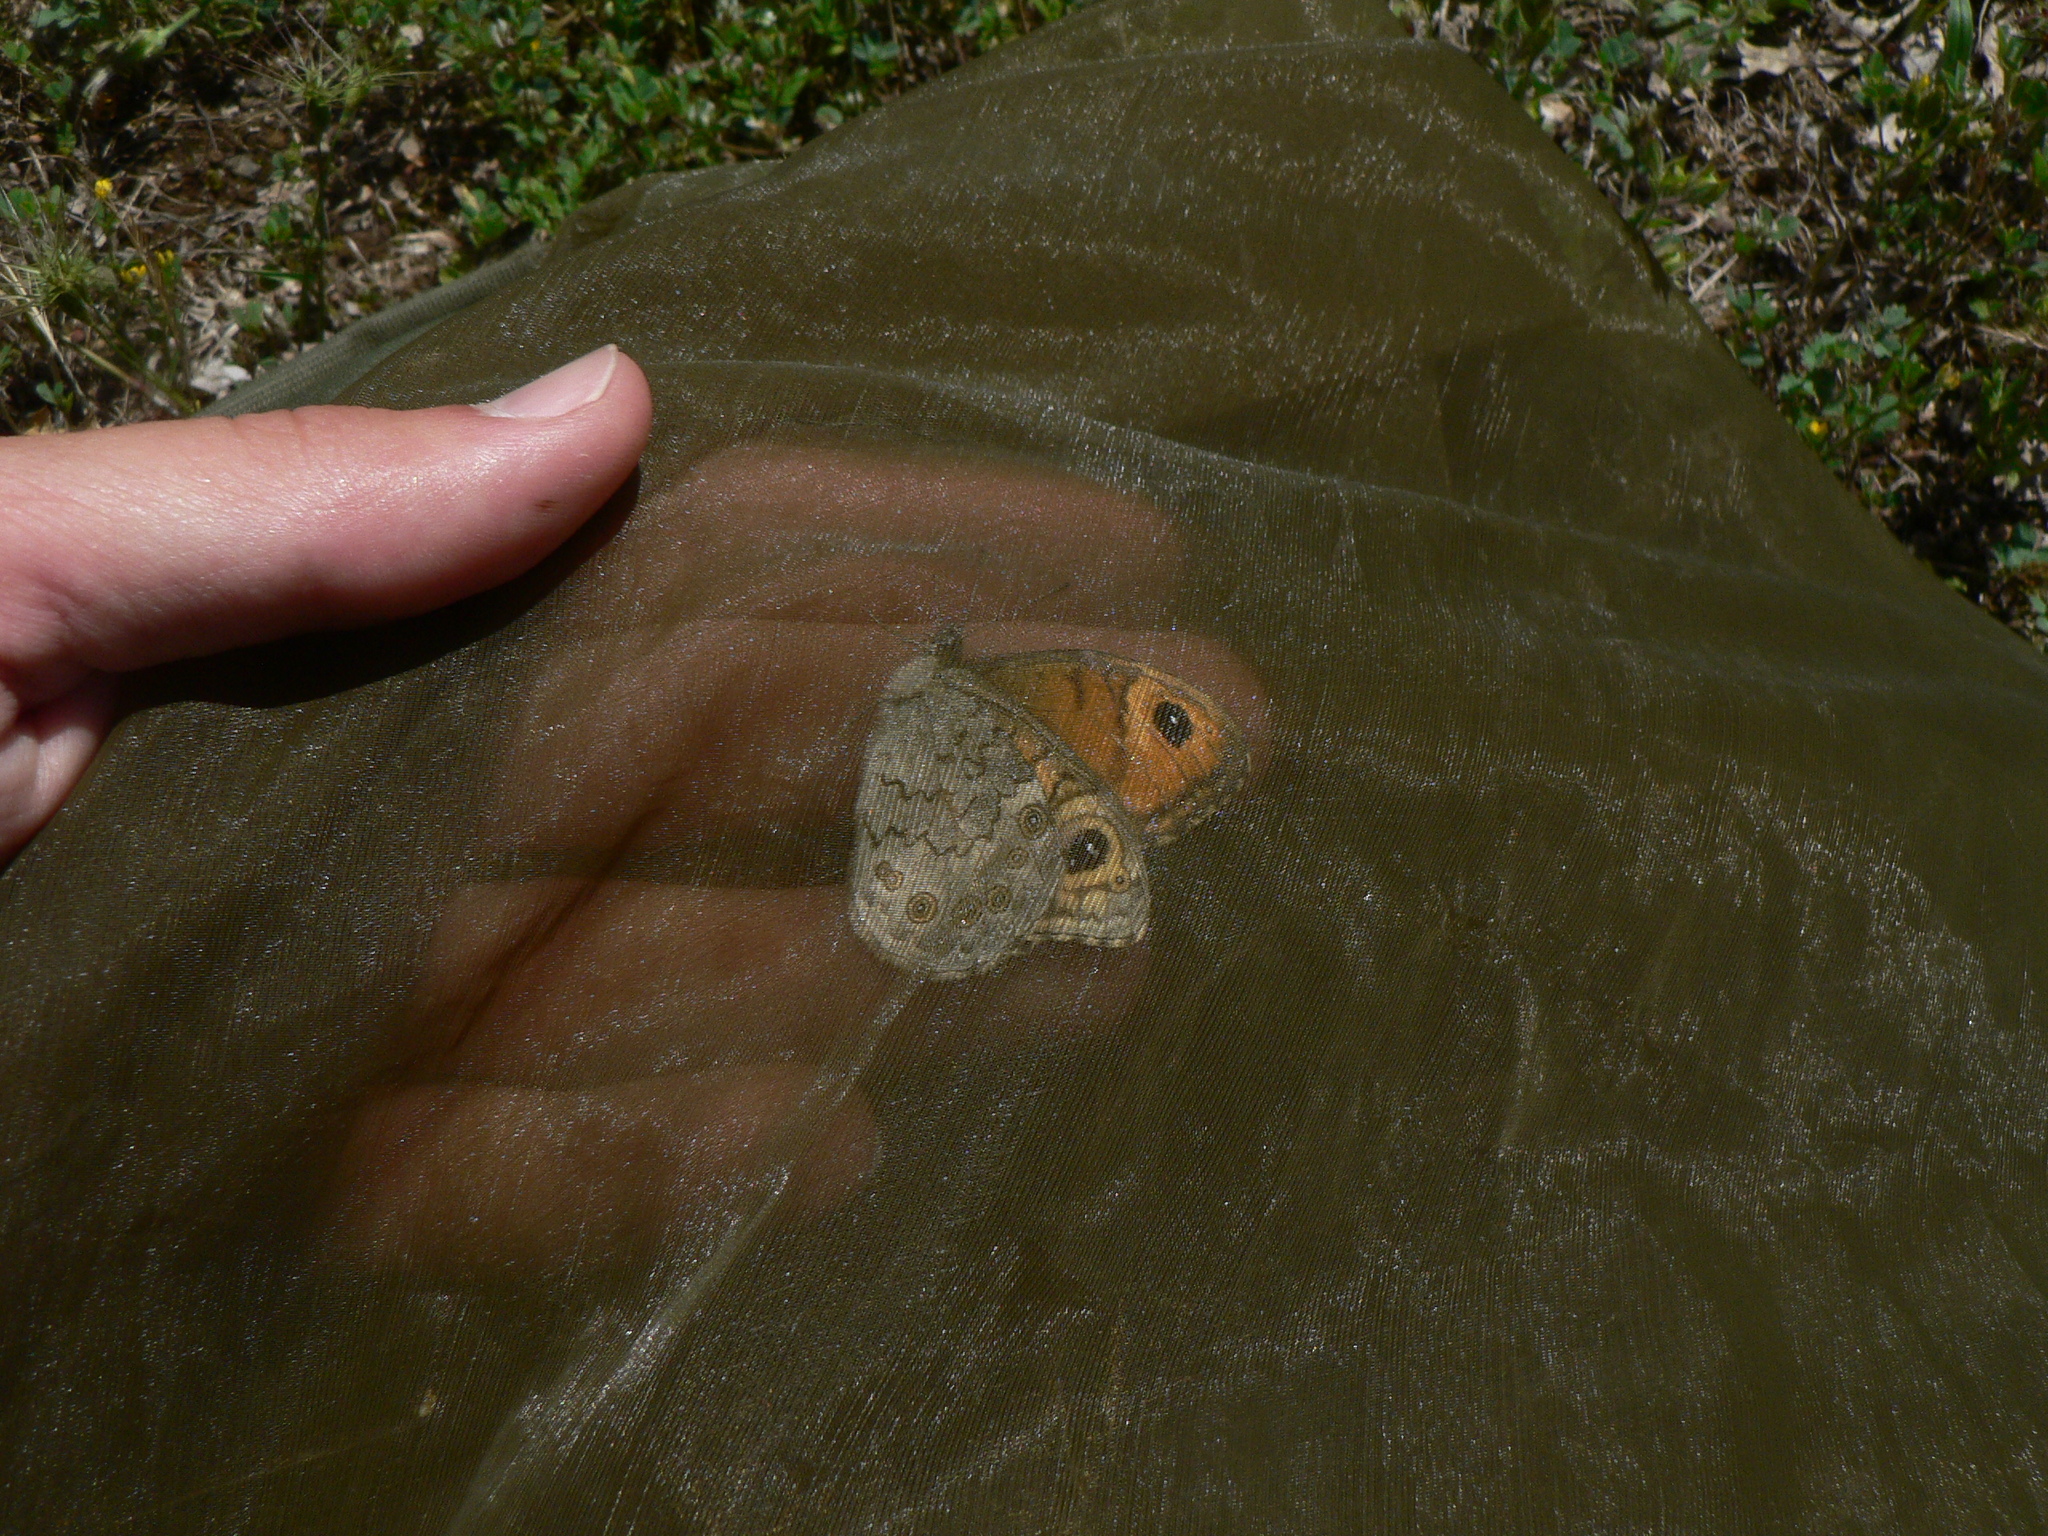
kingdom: Animalia
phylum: Arthropoda
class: Insecta
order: Lepidoptera
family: Nymphalidae
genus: Pararge
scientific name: Pararge Lasiommata maera
